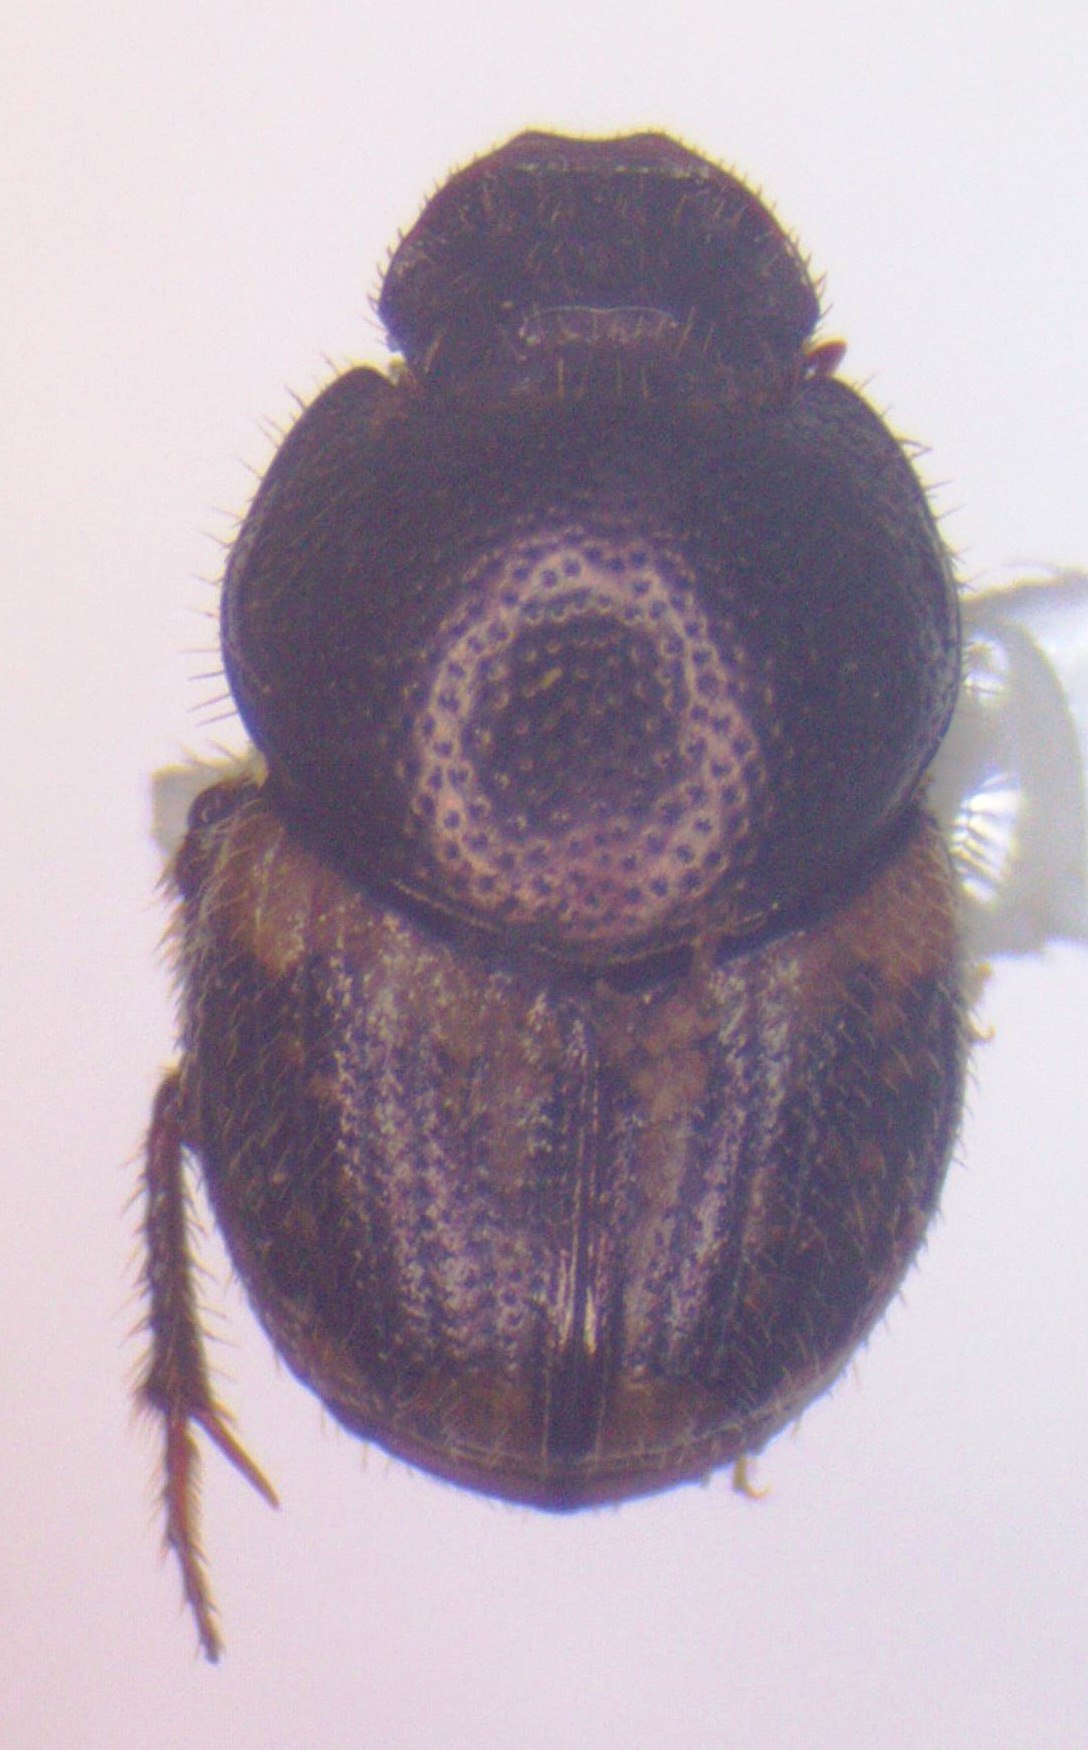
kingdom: Animalia
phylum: Arthropoda
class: Insecta
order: Coleoptera
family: Scarabaeidae
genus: Onthophagus
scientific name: Onthophagus hoepfneri
